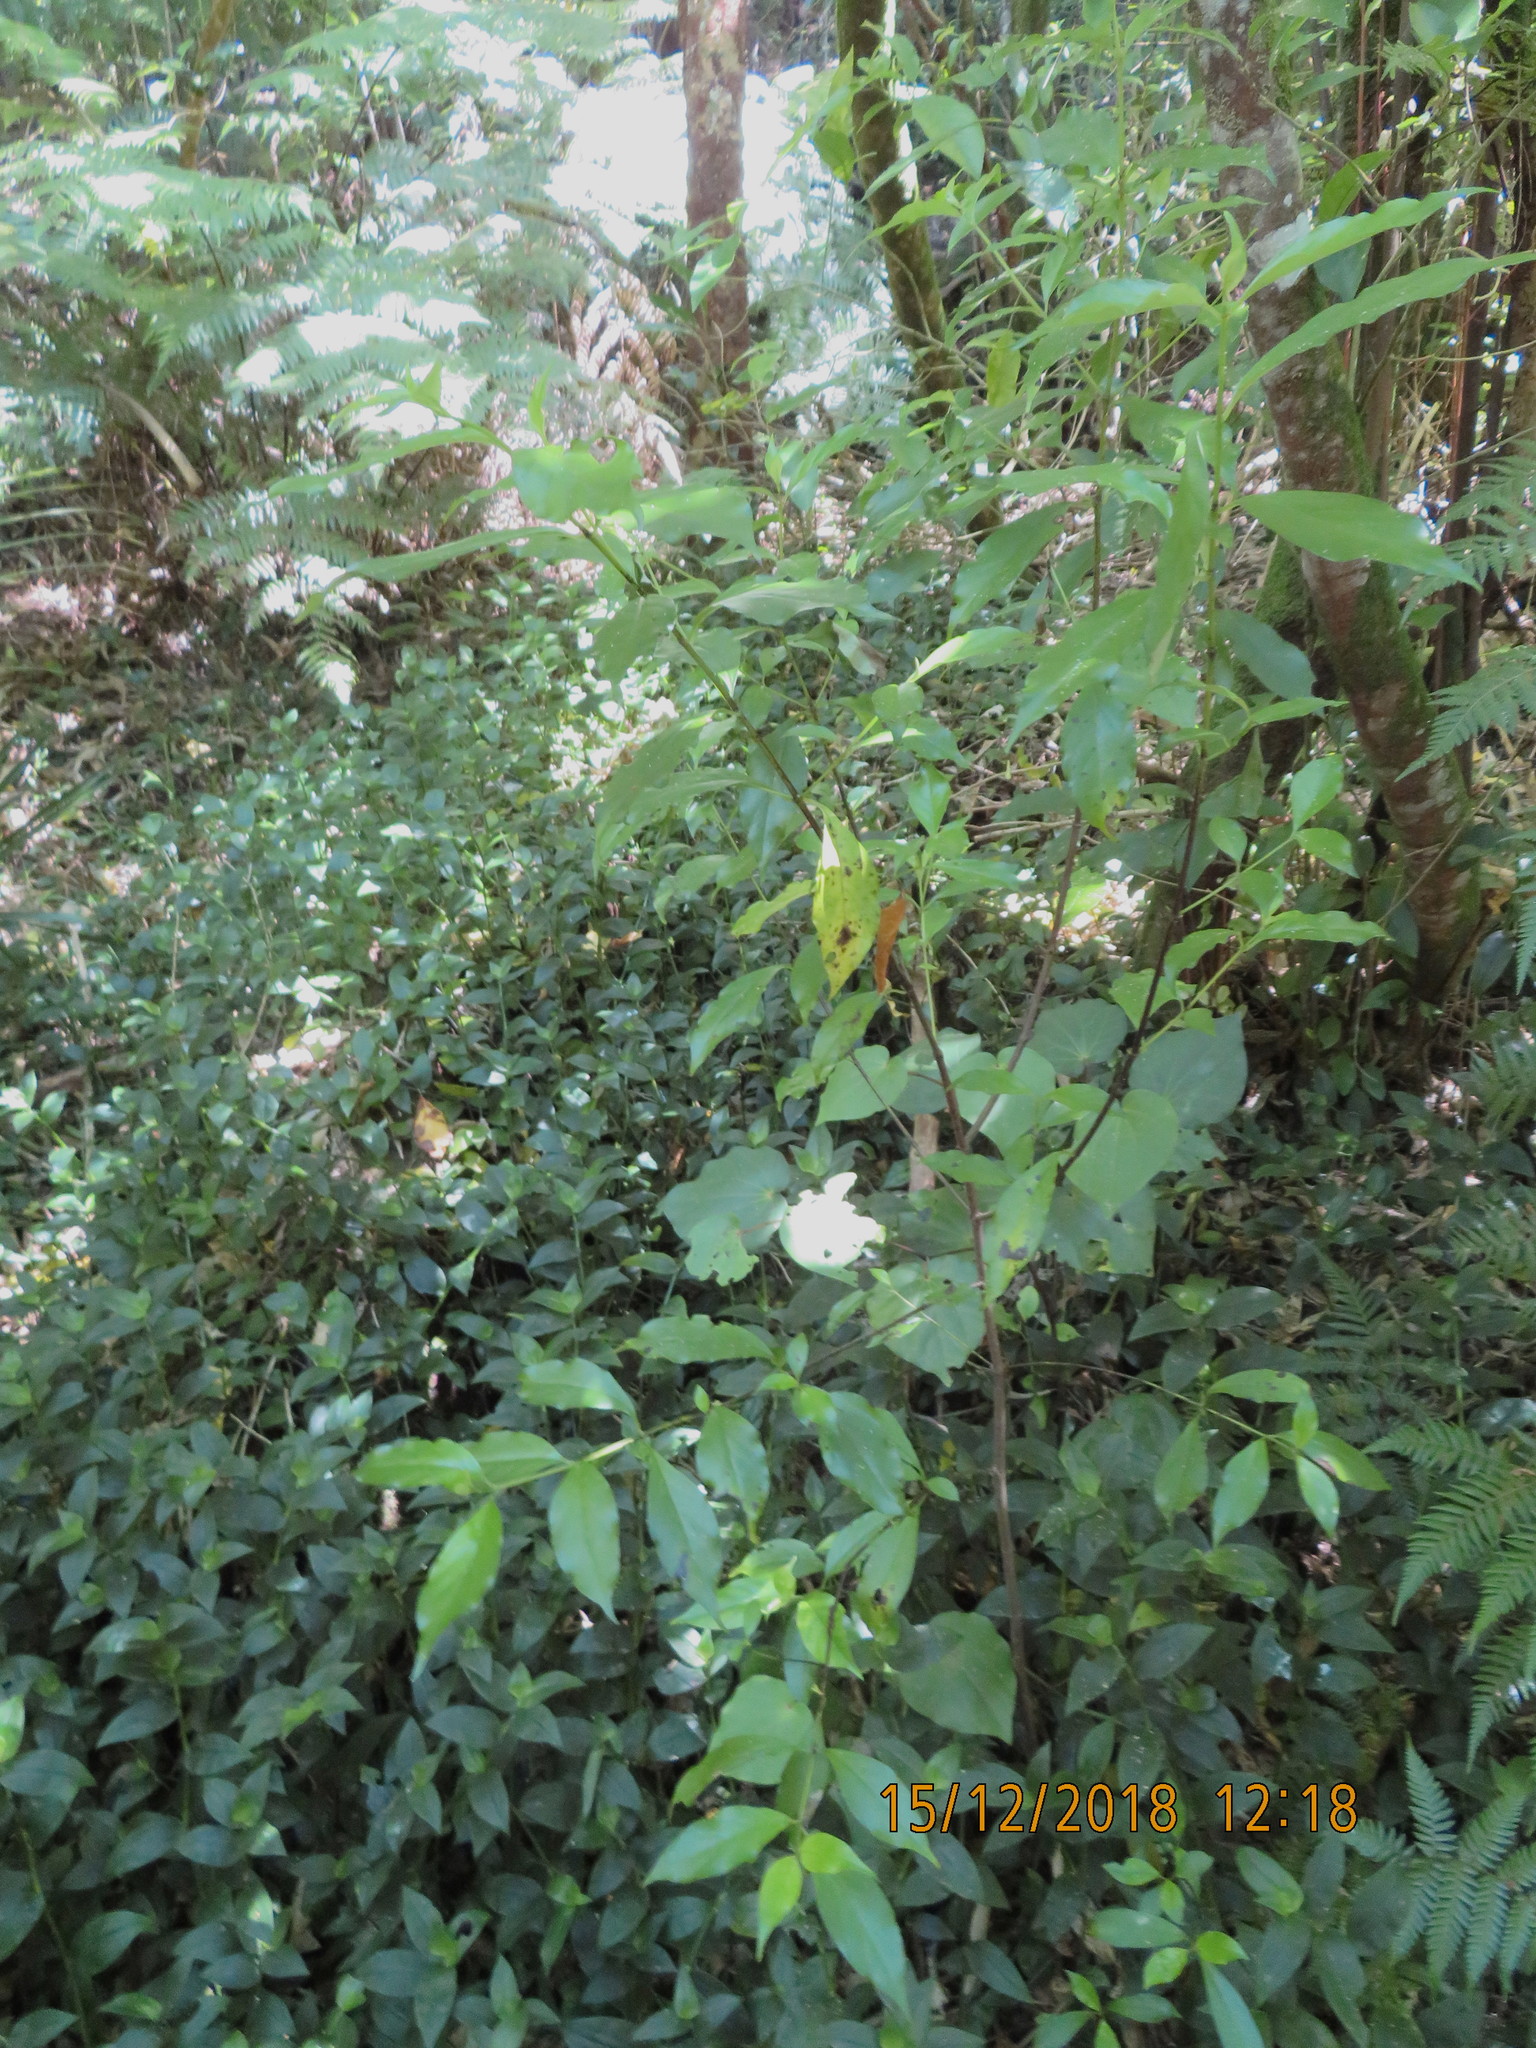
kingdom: Plantae
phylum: Tracheophyta
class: Magnoliopsida
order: Gentianales
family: Loganiaceae
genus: Geniostoma
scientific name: Geniostoma ligustrifolium
